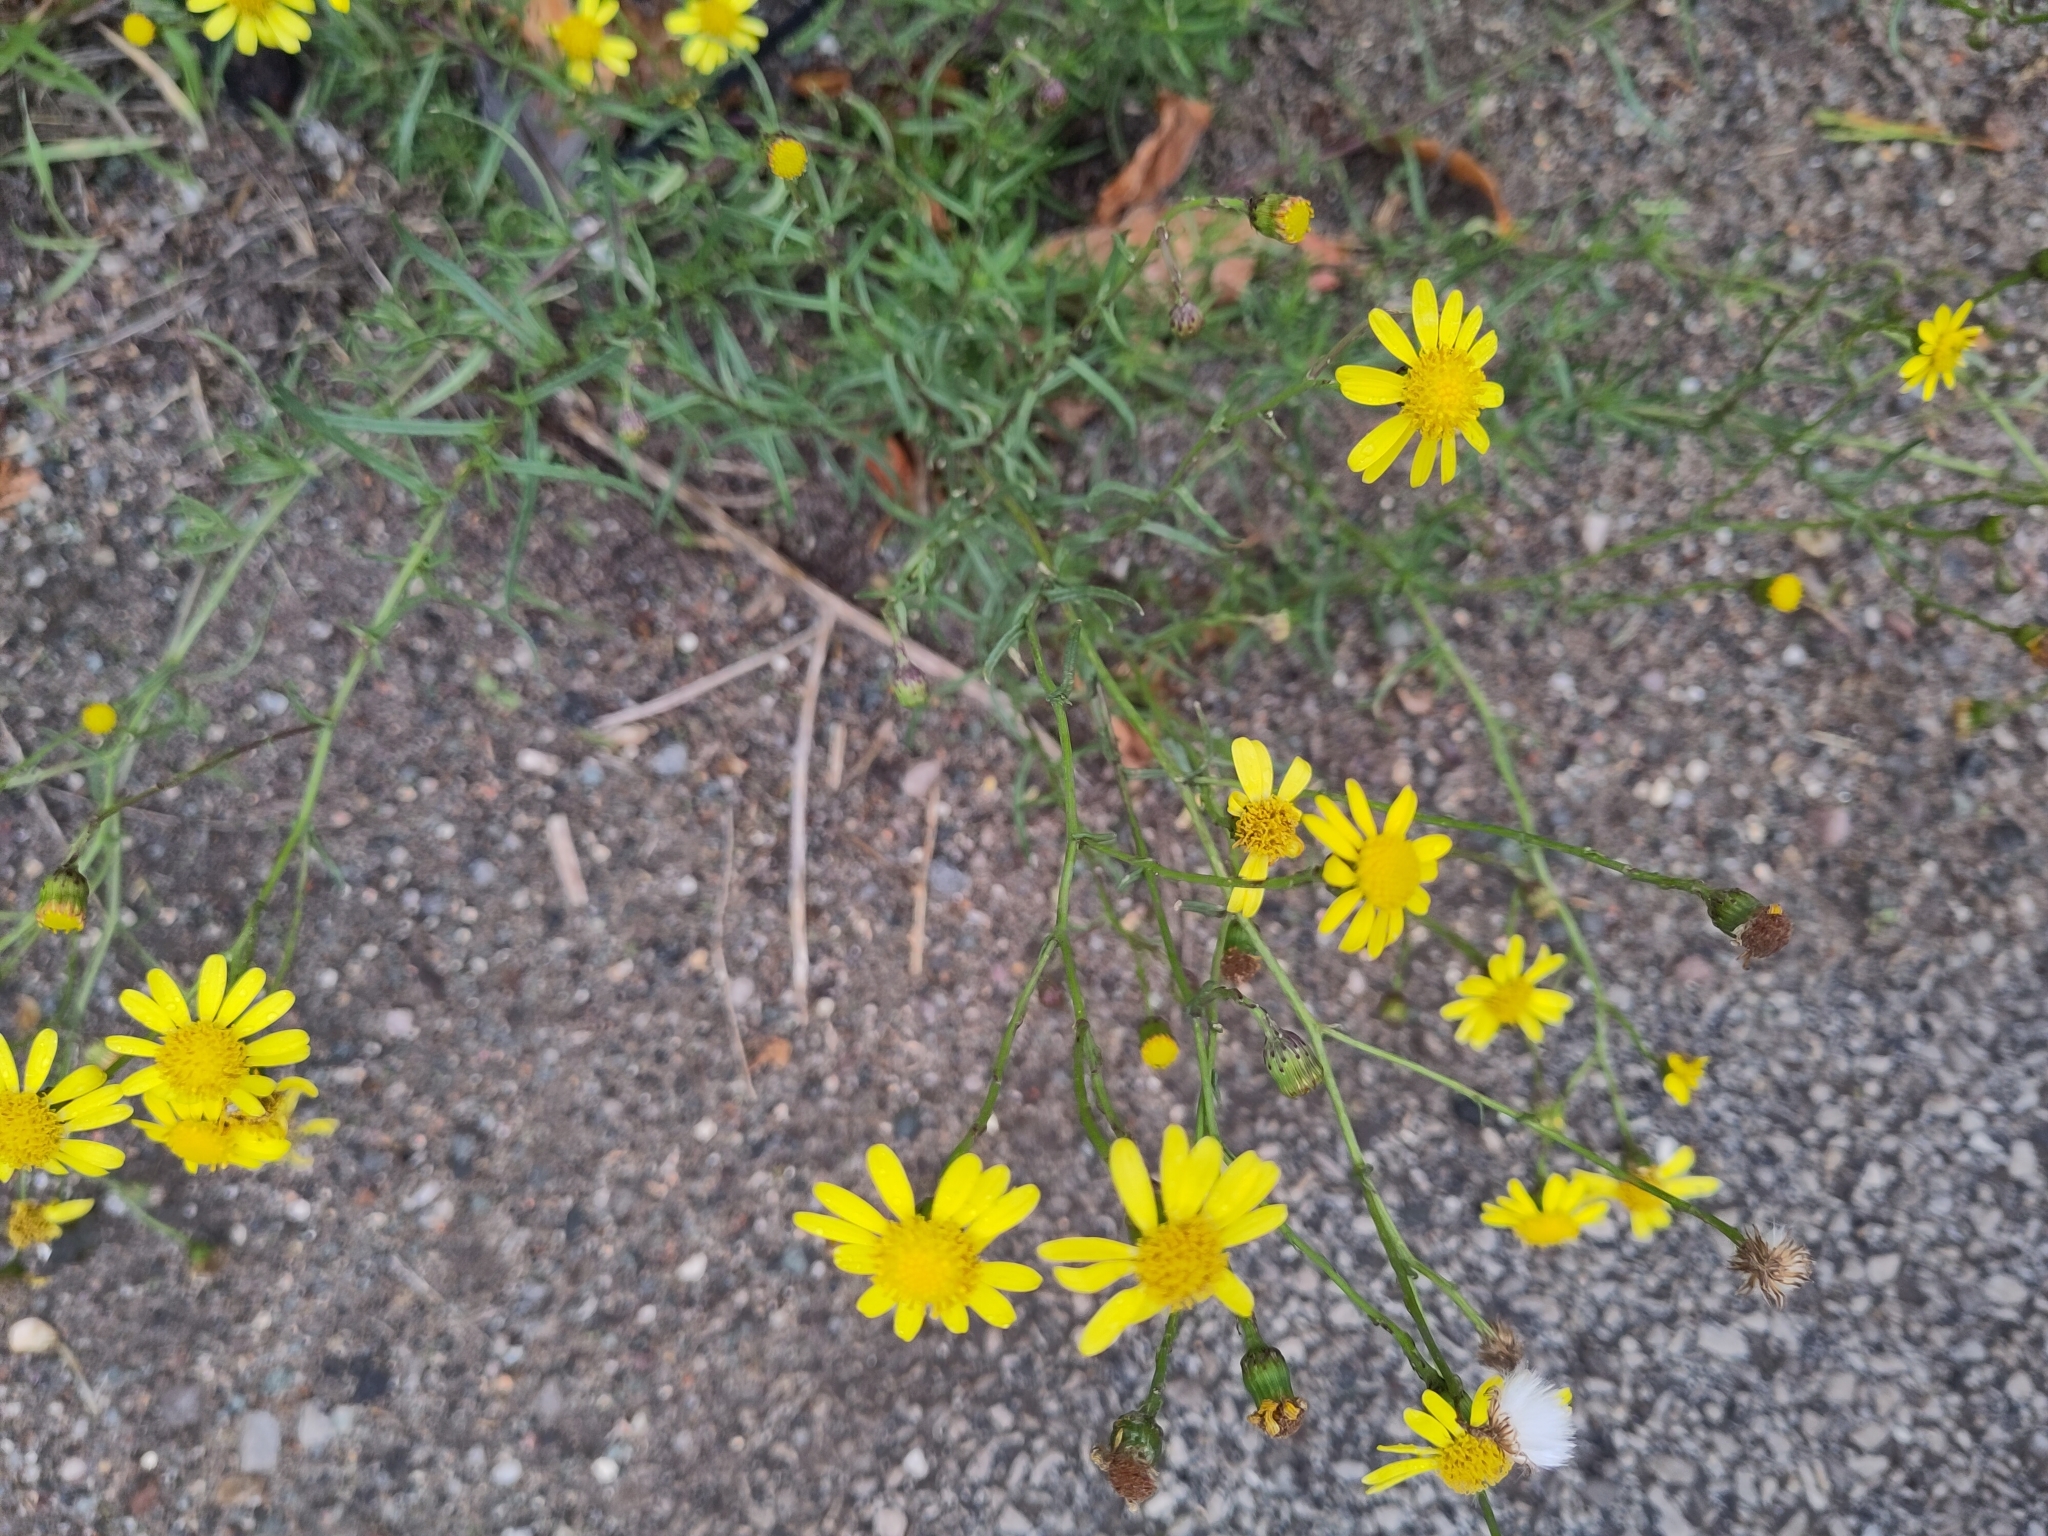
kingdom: Plantae
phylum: Tracheophyta
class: Magnoliopsida
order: Asterales
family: Asteraceae
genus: Senecio
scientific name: Senecio inaequidens
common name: Narrow-leaved ragwort
